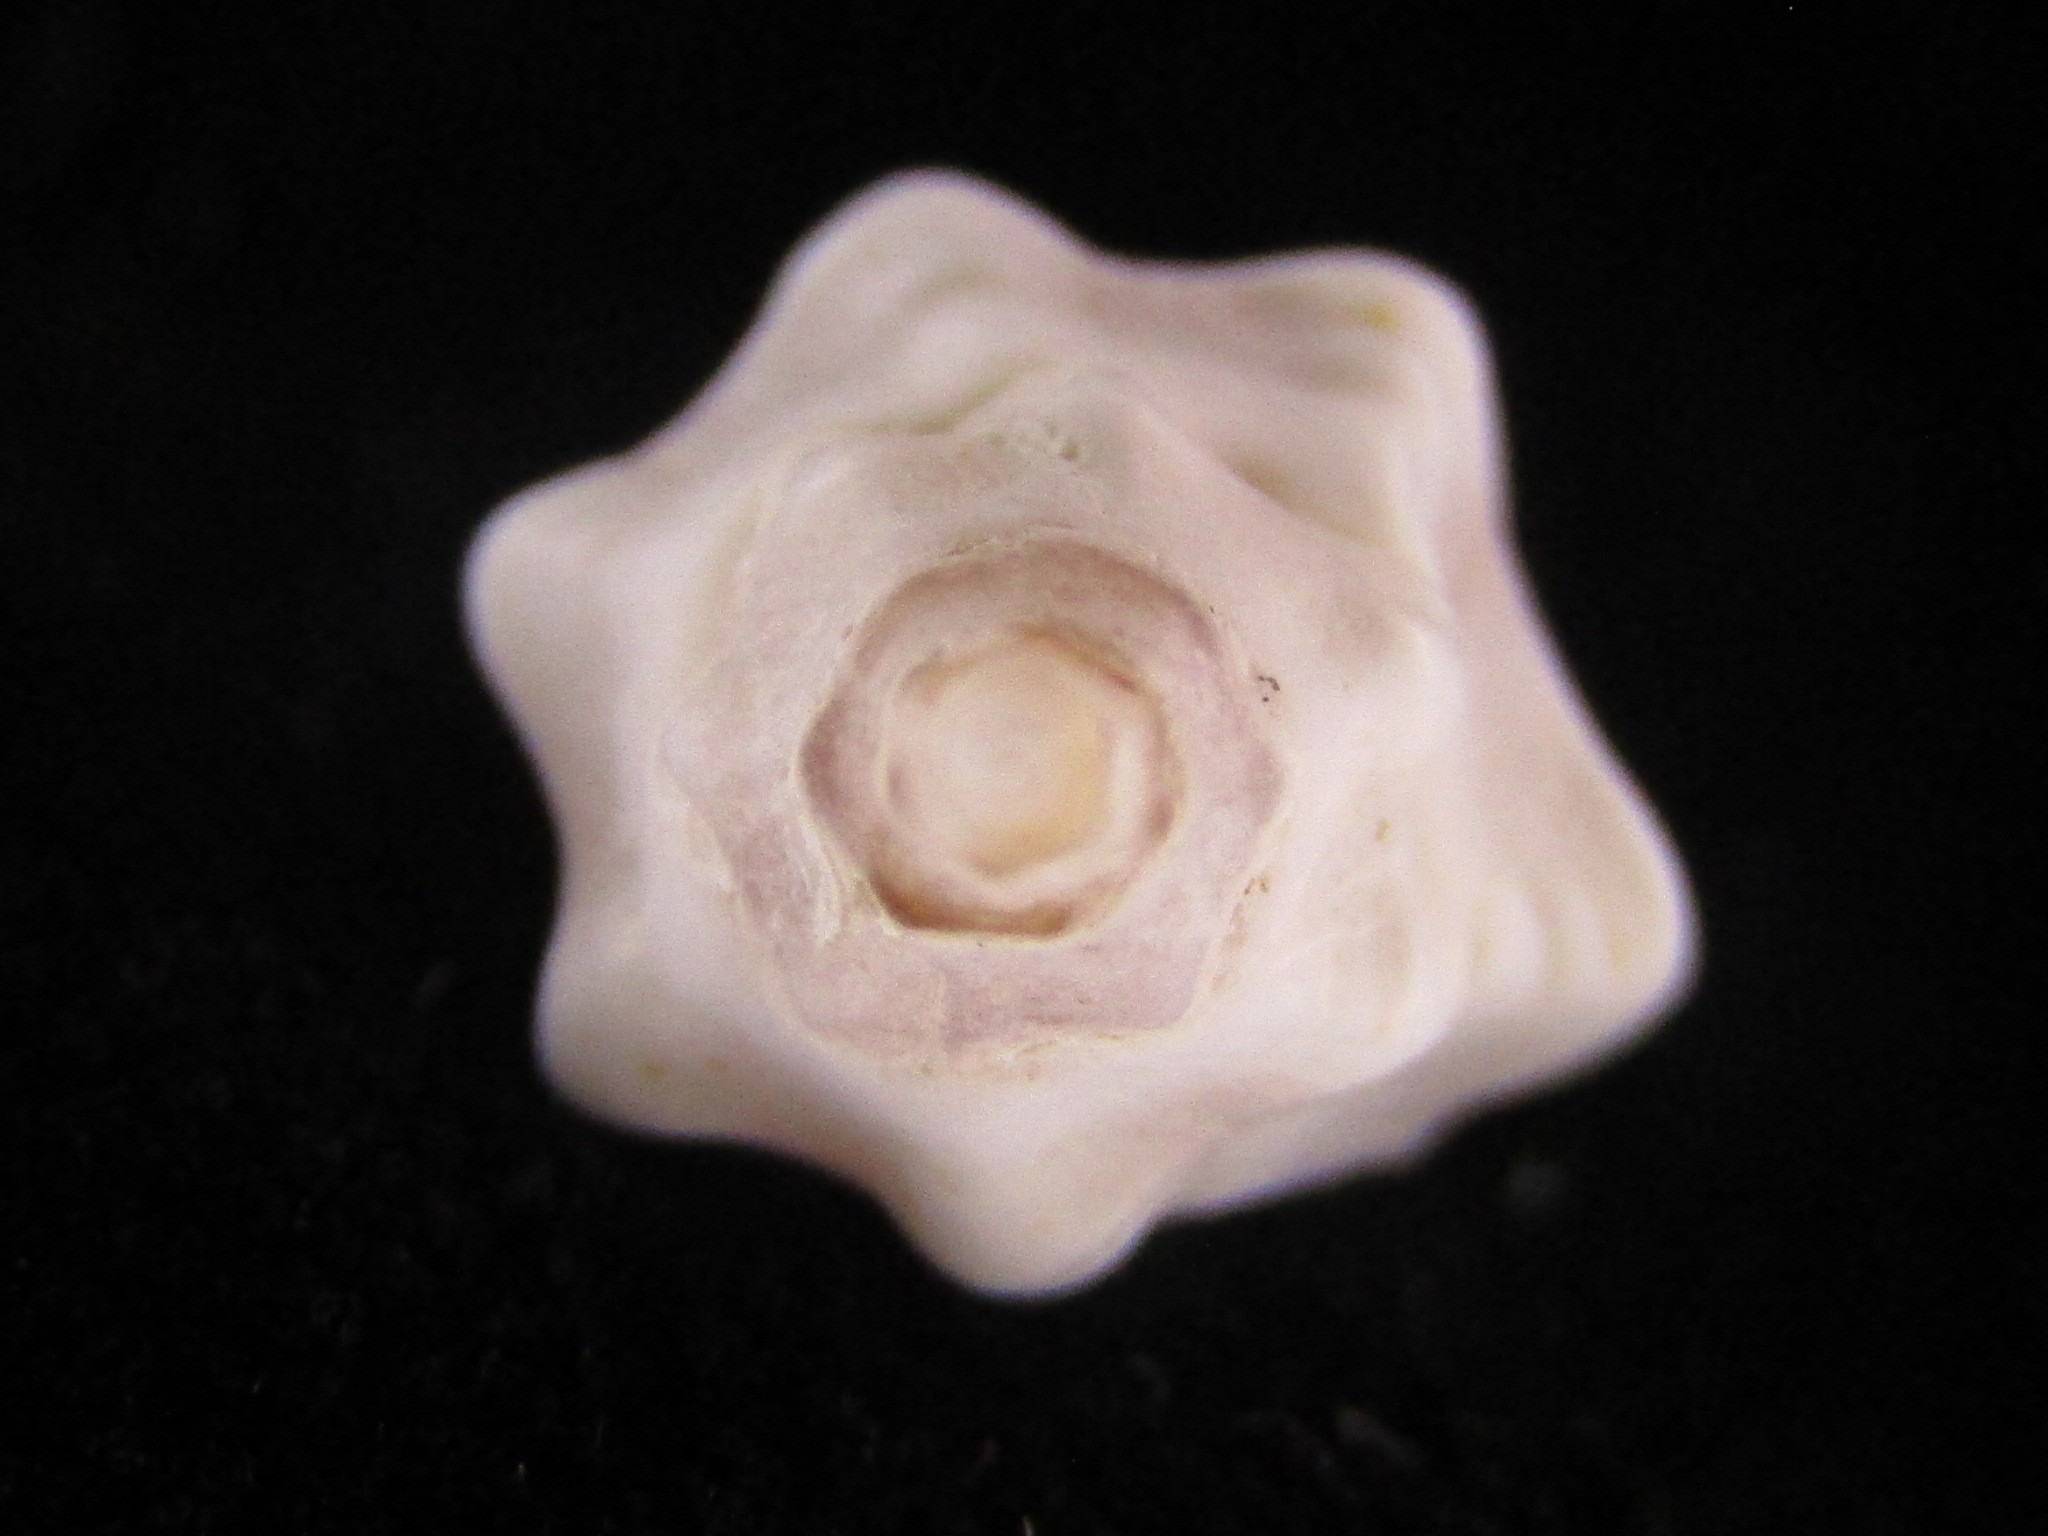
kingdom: Animalia
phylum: Mollusca
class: Gastropoda
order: Neogastropoda
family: Muricidae
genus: Pascula
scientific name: Pascula ochrostoma
